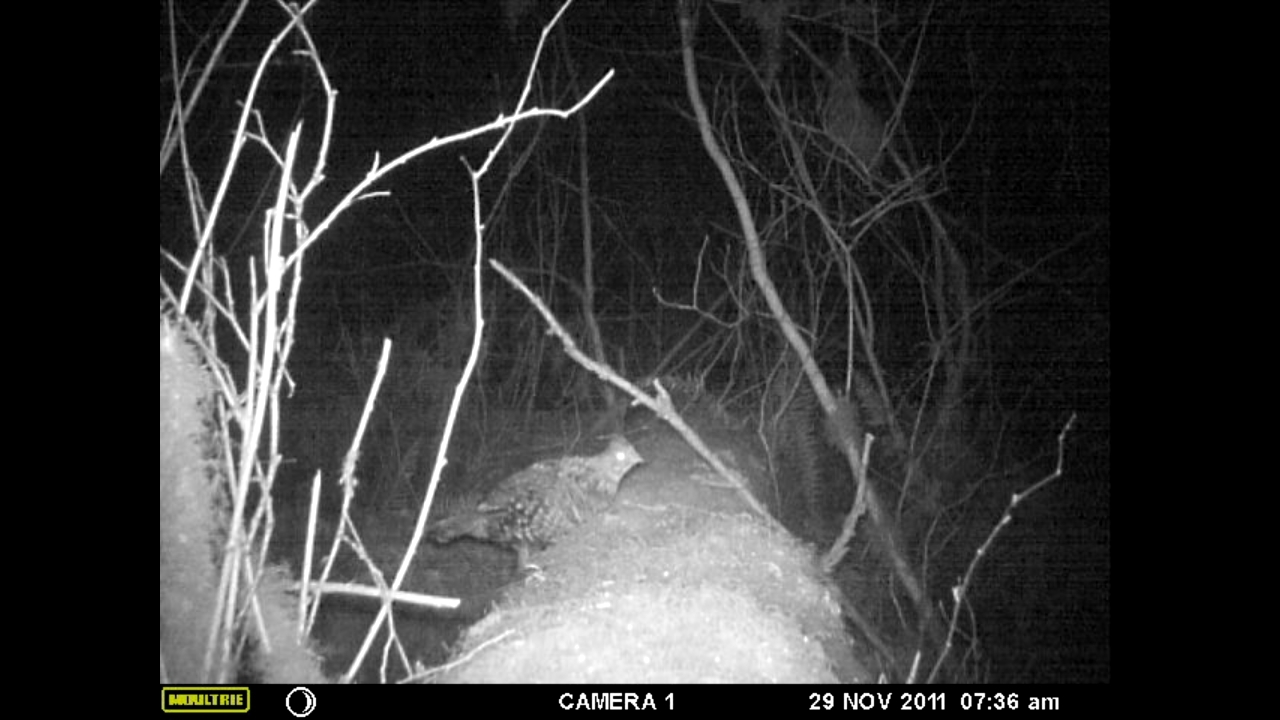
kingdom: Animalia
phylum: Chordata
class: Aves
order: Galliformes
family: Phasianidae
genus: Bonasa
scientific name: Bonasa umbellus
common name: Ruffed grouse
